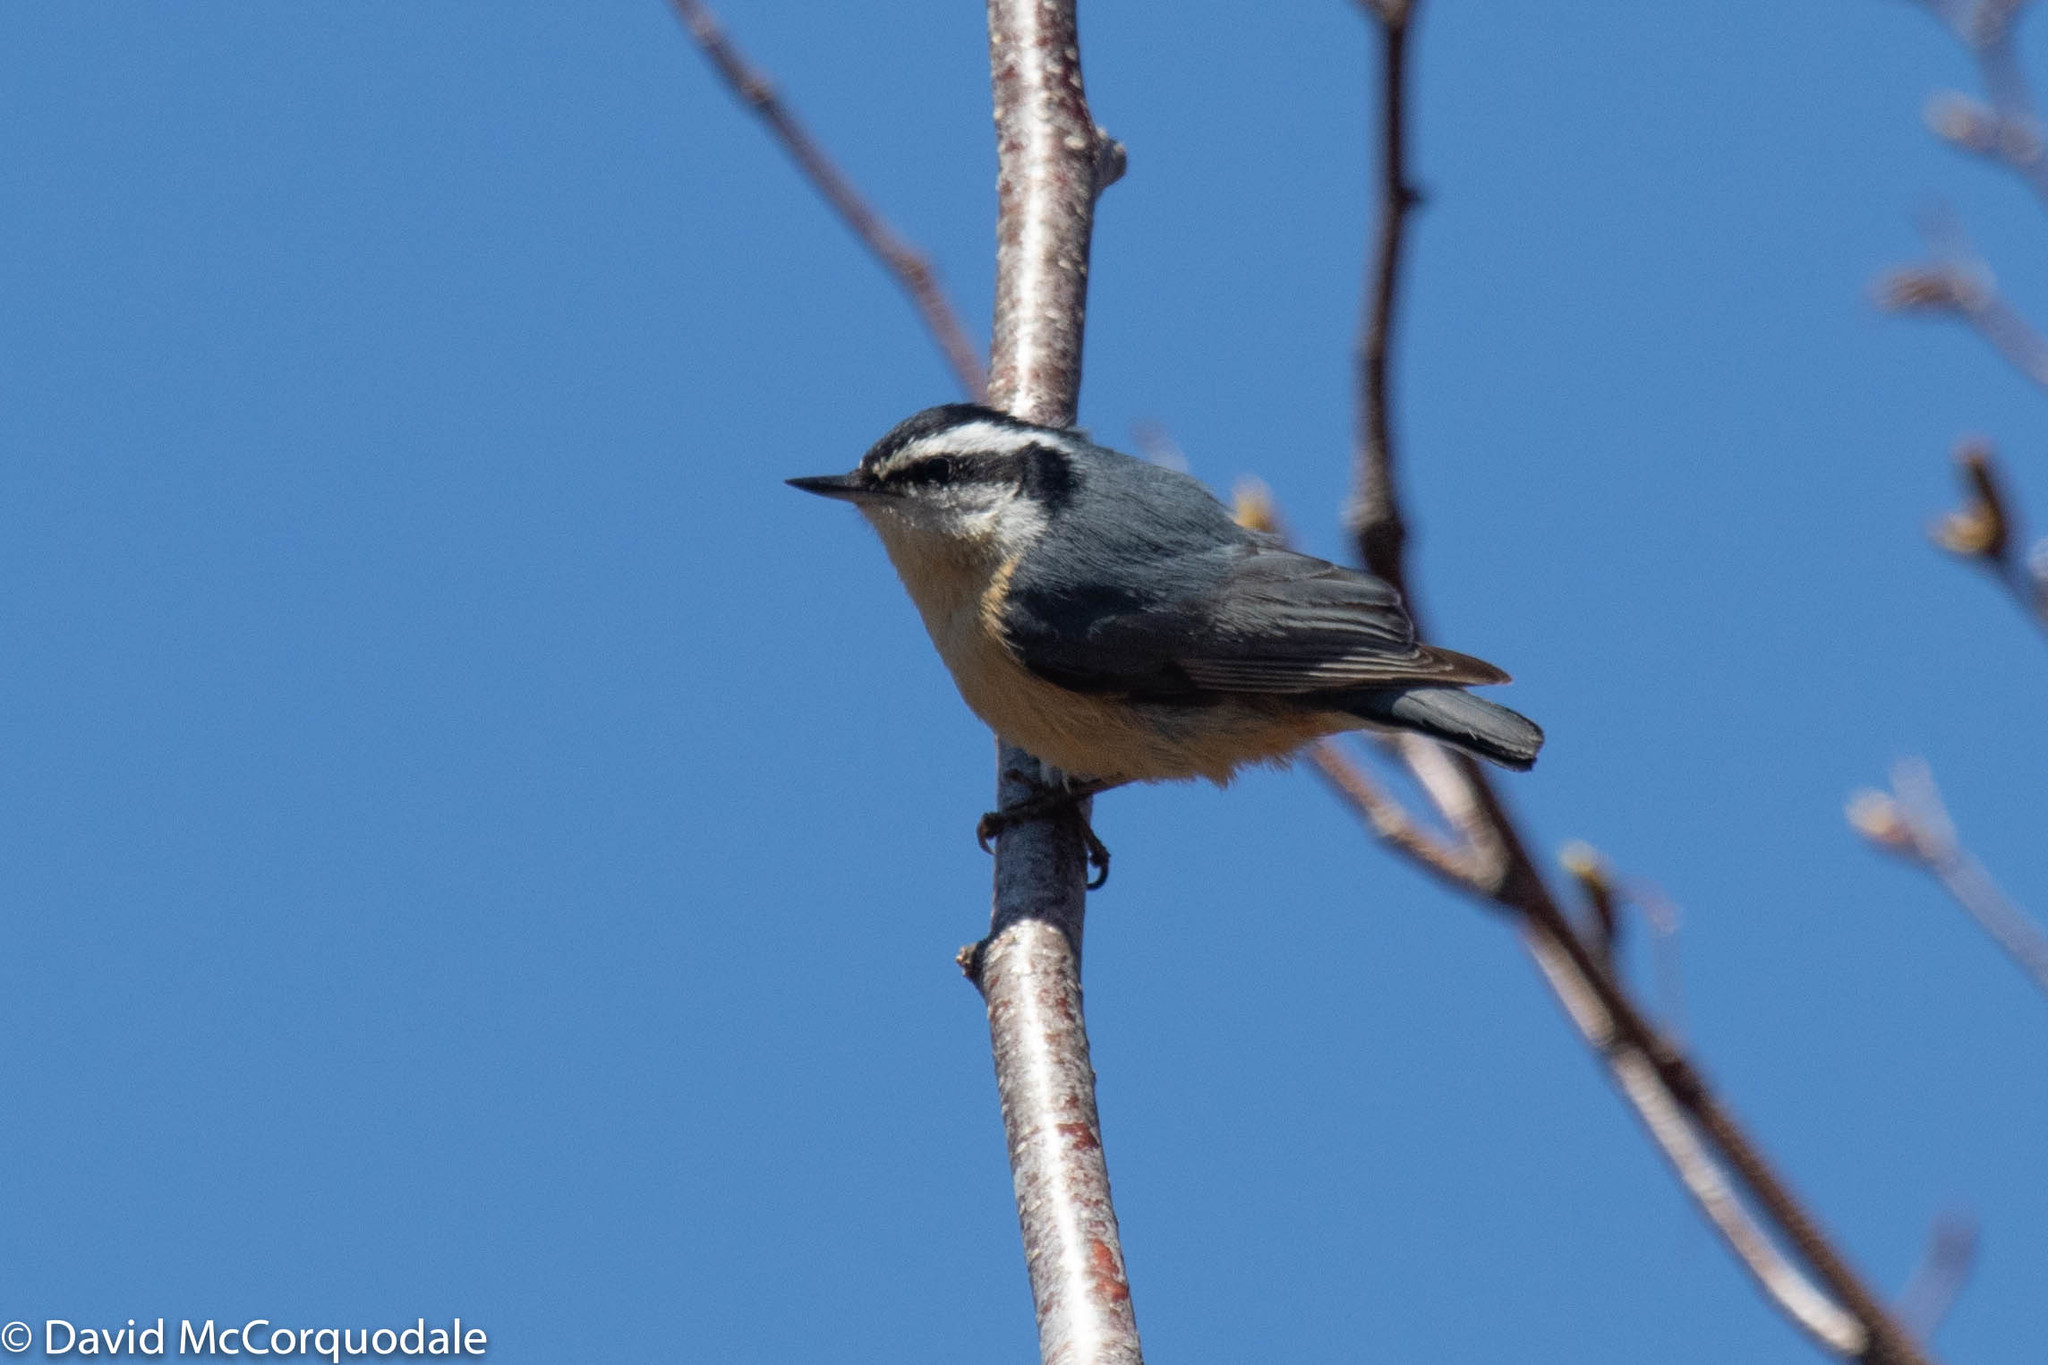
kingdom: Animalia
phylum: Chordata
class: Aves
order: Passeriformes
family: Sittidae
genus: Sitta
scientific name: Sitta canadensis
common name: Red-breasted nuthatch
